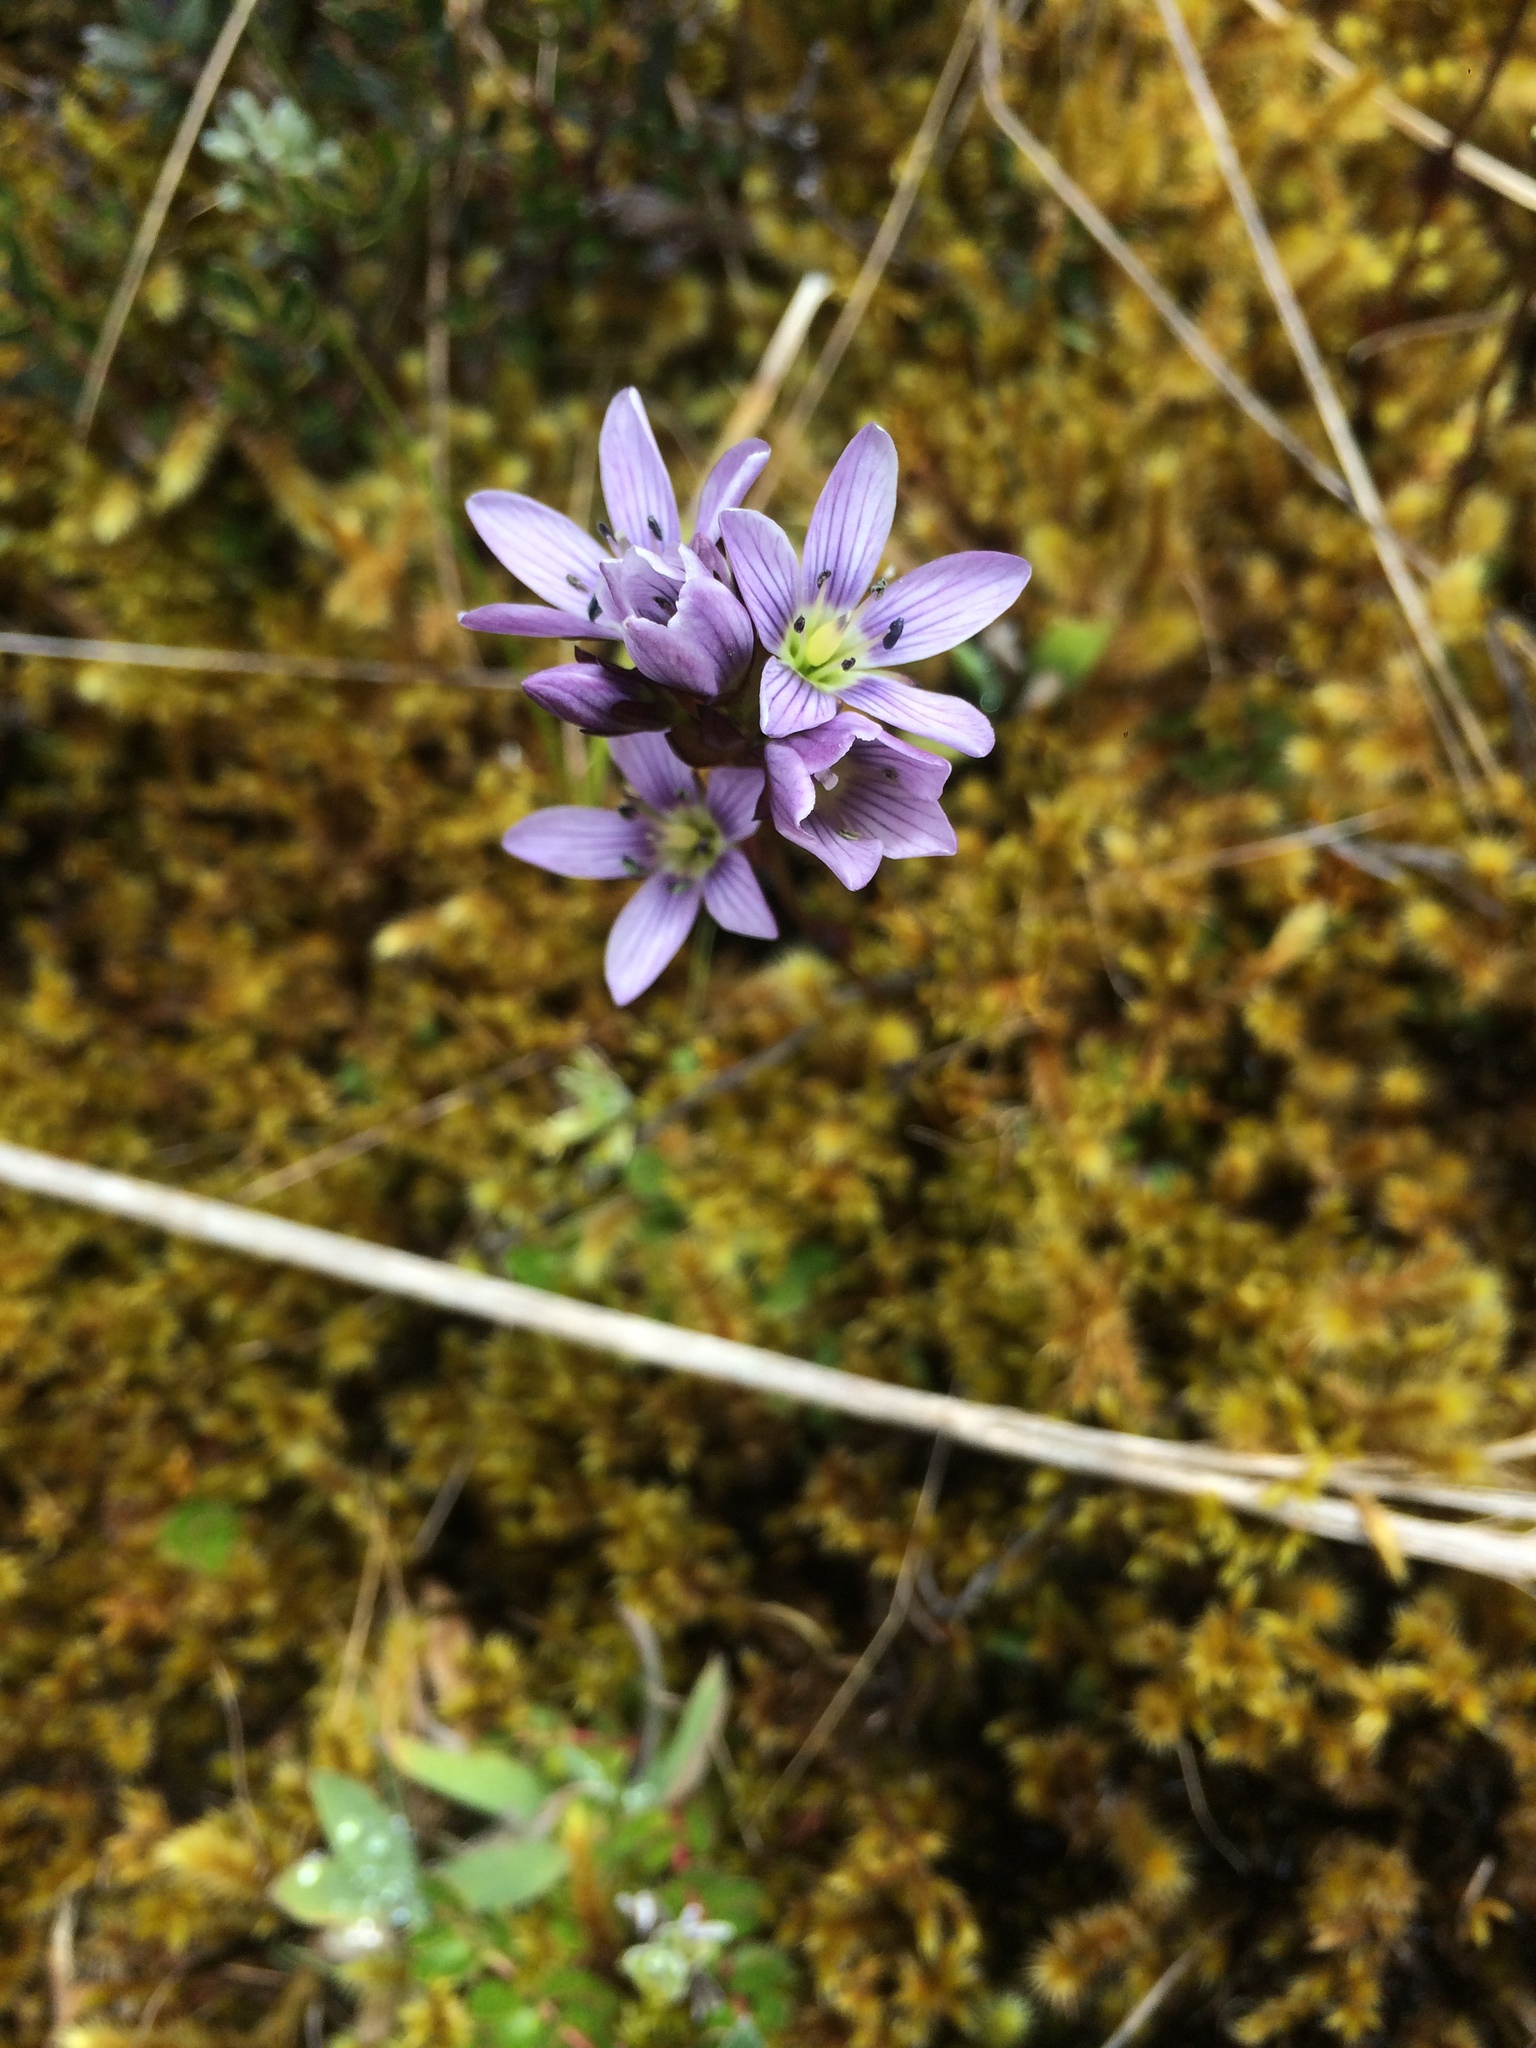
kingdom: Plantae
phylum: Tracheophyta
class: Magnoliopsida
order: Gentianales
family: Gentianaceae
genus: Gentianella
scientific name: Gentianella corymbosa
